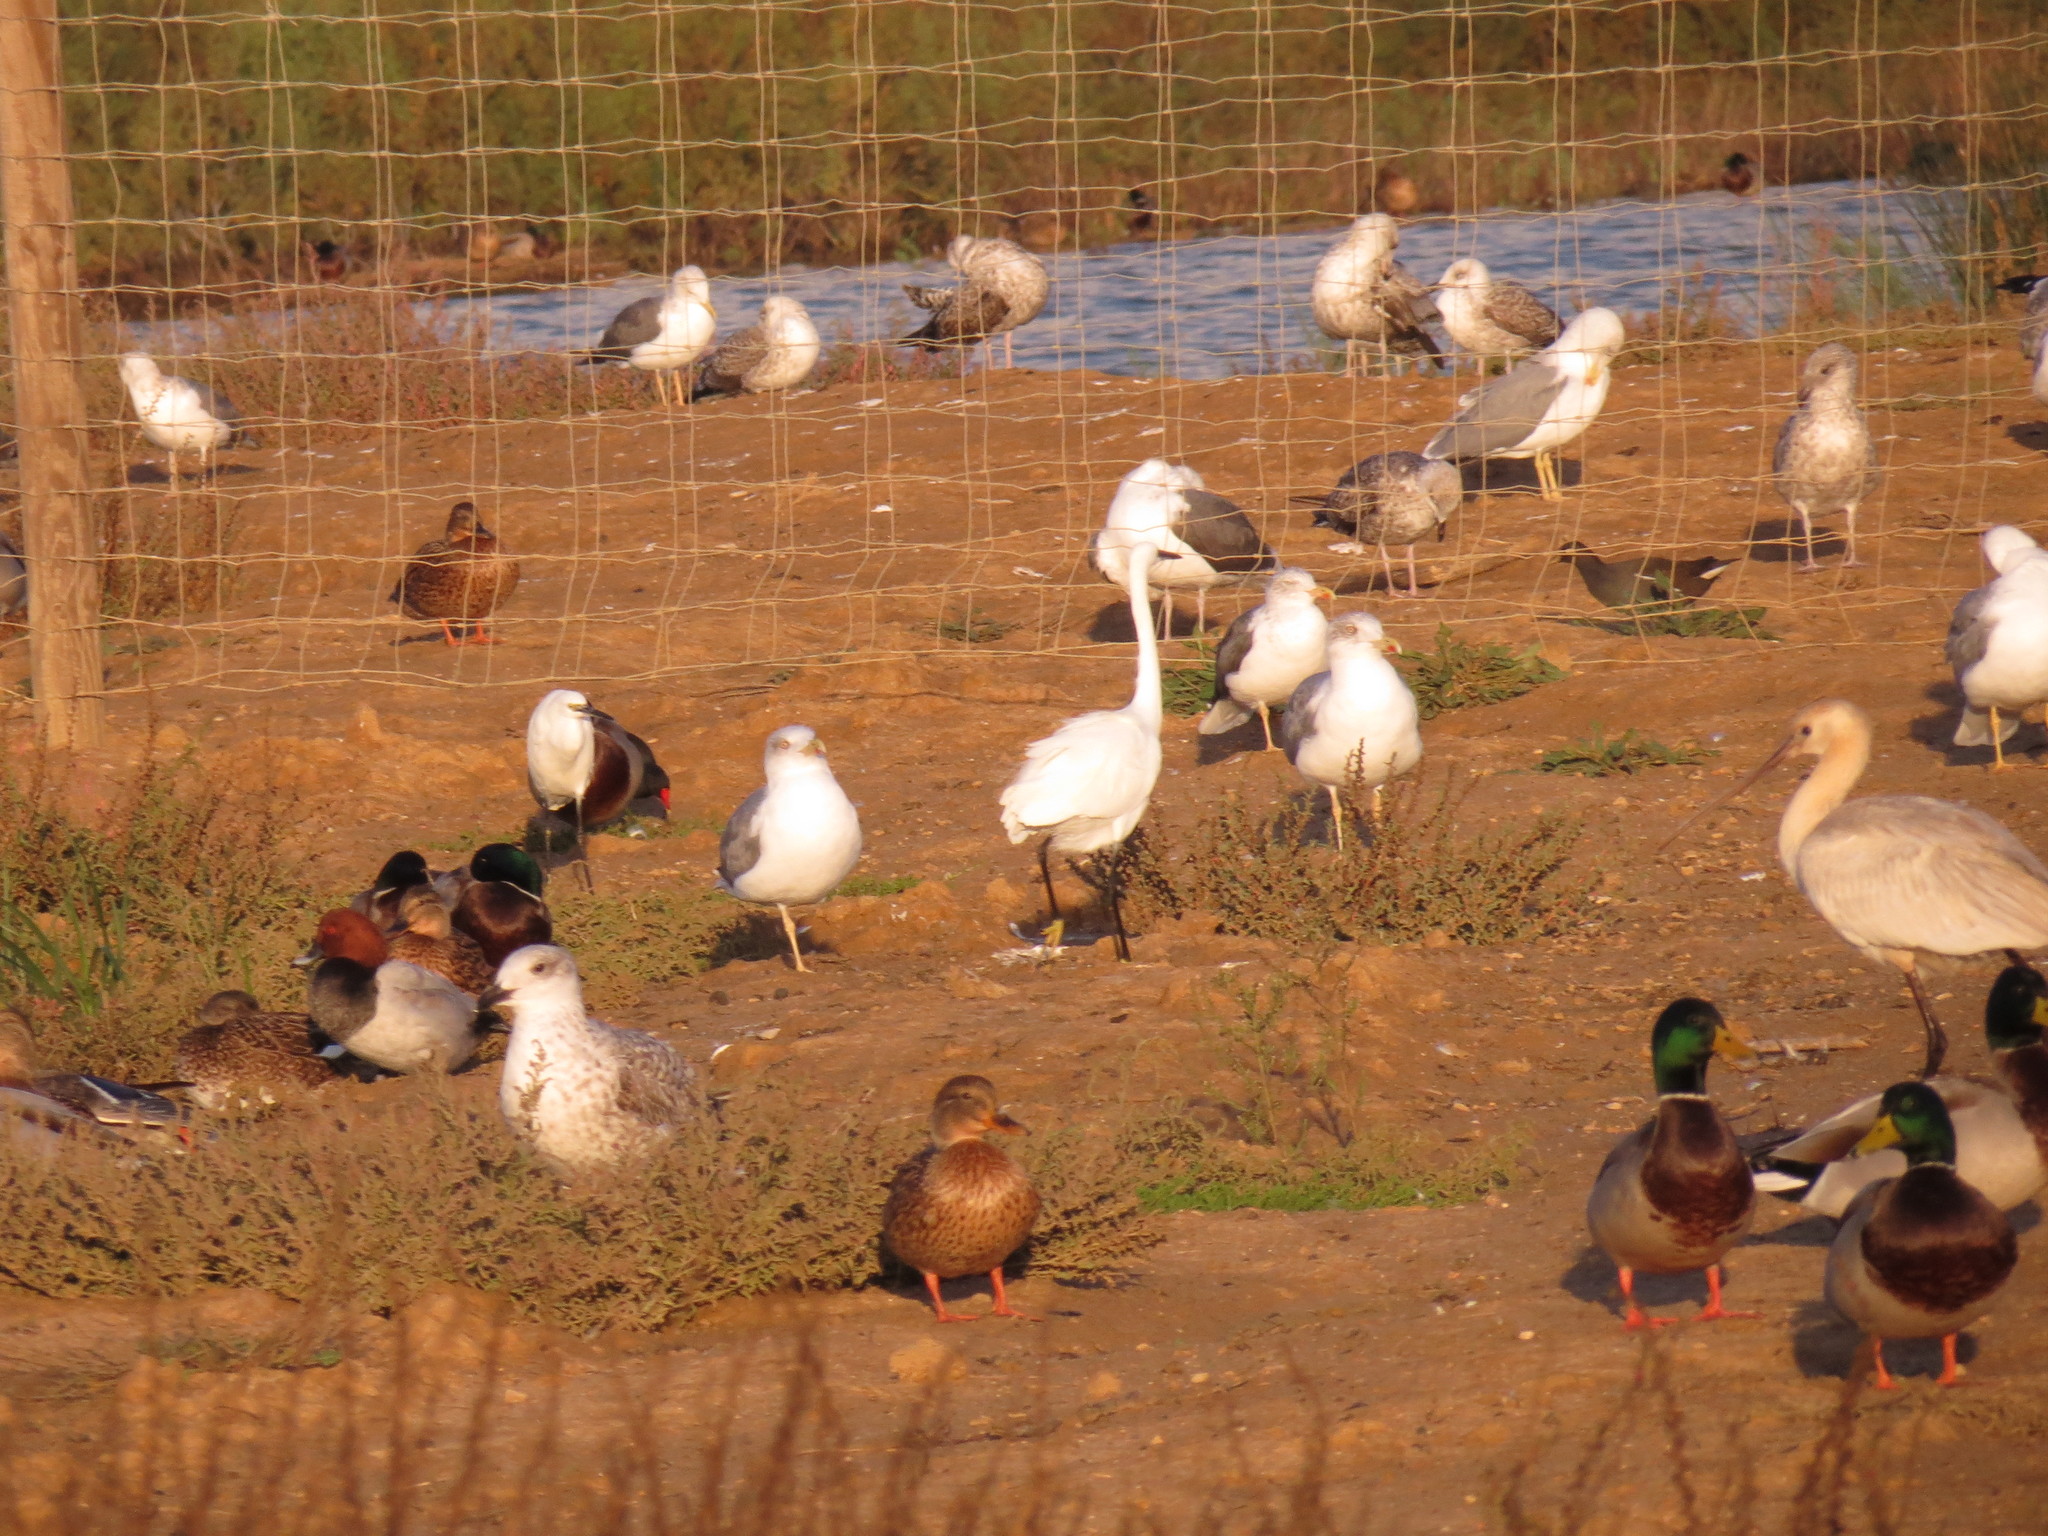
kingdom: Animalia
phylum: Chordata
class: Aves
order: Gruiformes
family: Rallidae
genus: Gallinula
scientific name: Gallinula chloropus
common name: Common moorhen
